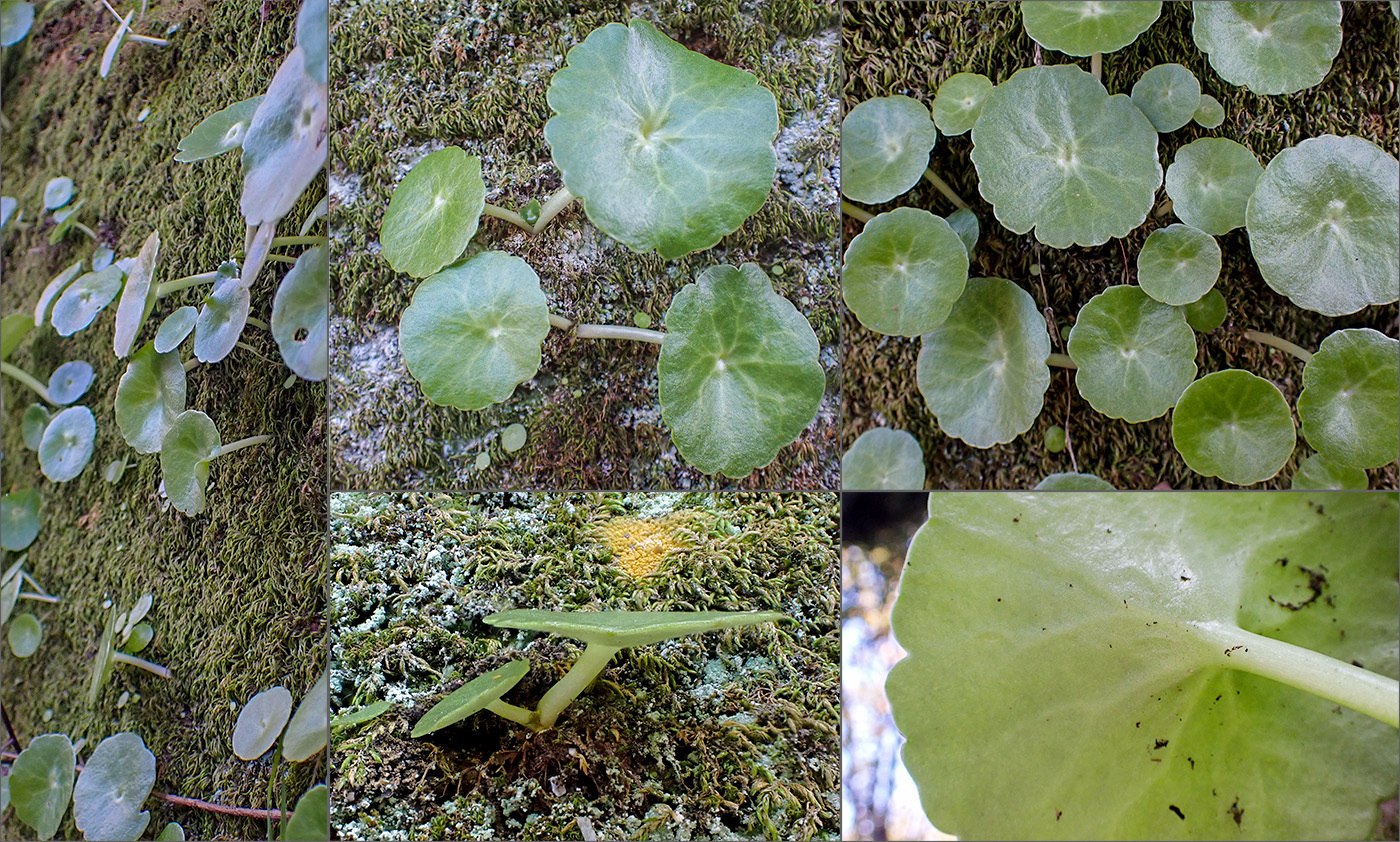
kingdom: Plantae
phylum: Tracheophyta
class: Magnoliopsida
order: Saxifragales
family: Crassulaceae
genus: Umbilicus
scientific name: Umbilicus rupestris
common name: Navelwort
